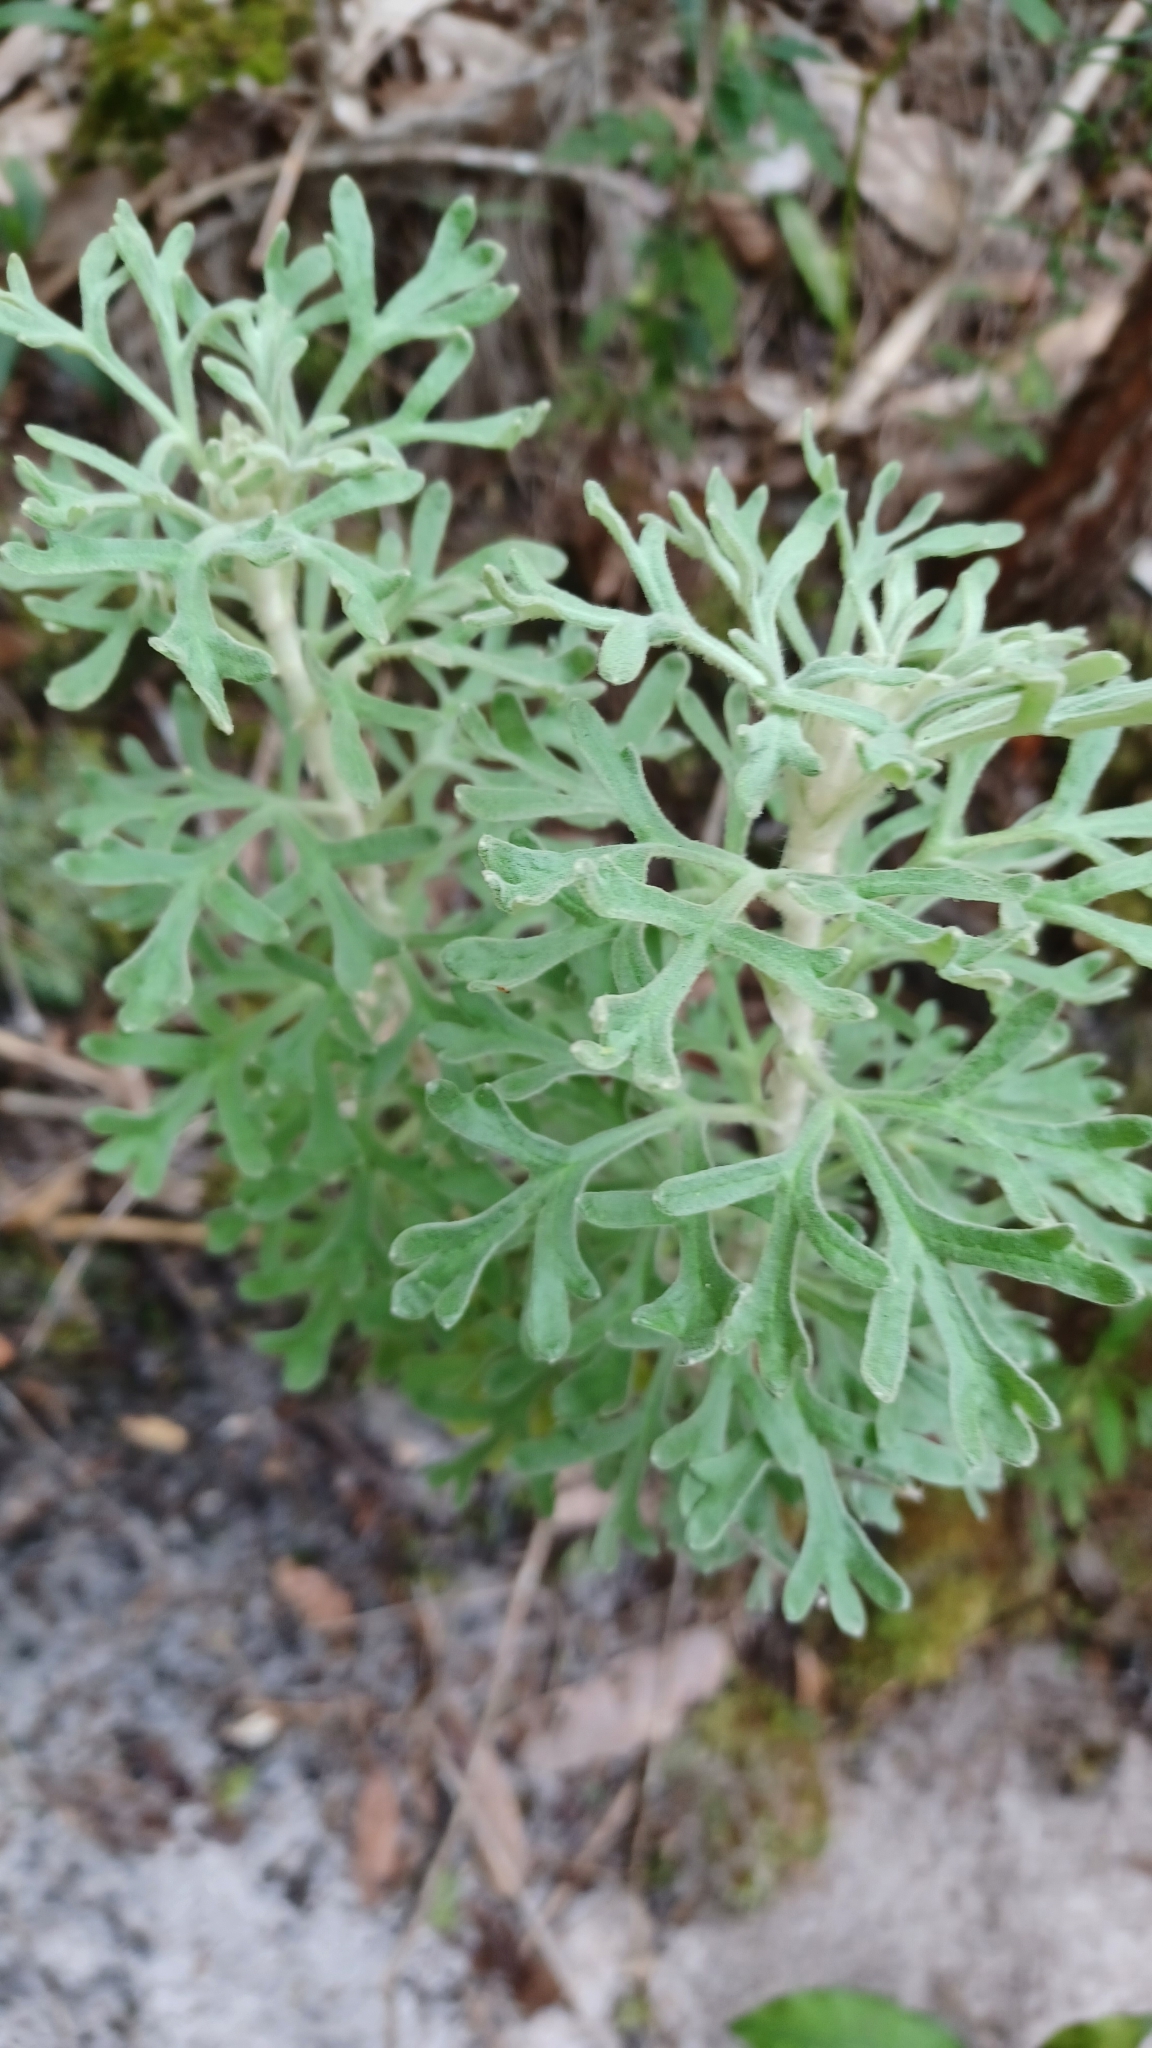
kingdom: Plantae
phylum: Tracheophyta
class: Magnoliopsida
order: Apiales
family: Apiaceae
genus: Actinotus
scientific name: Actinotus helianthi
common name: Flannel-flower
